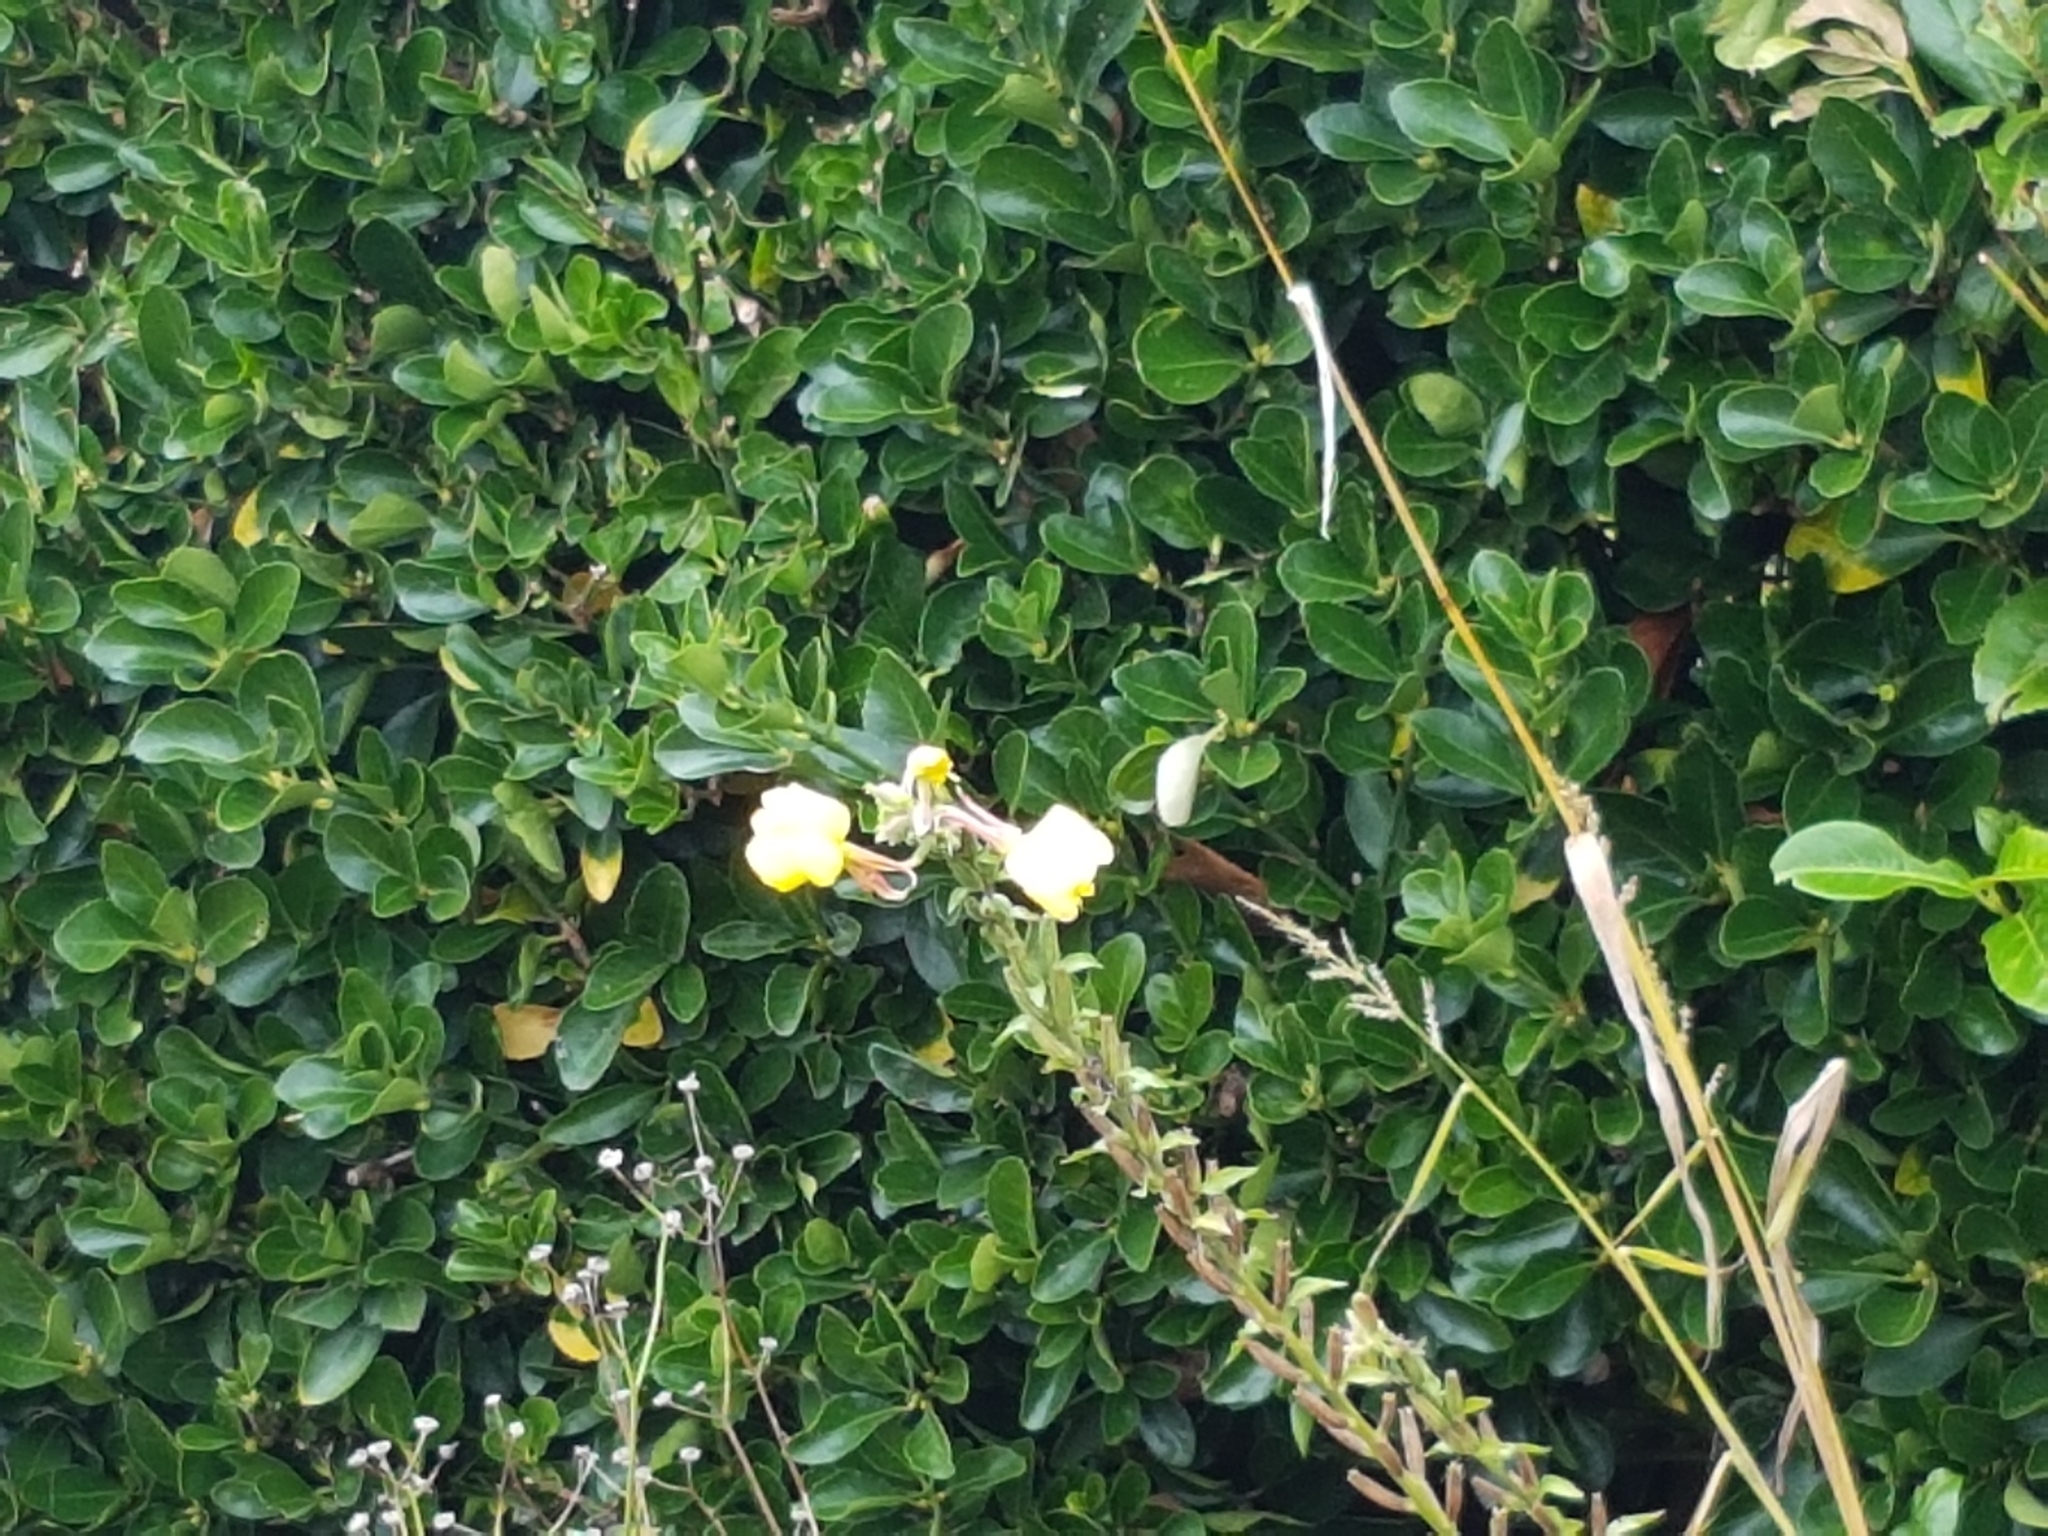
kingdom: Plantae
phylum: Tracheophyta
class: Magnoliopsida
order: Myrtales
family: Onagraceae
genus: Oenothera
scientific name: Oenothera glazioviana
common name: Large-flowered evening-primrose
